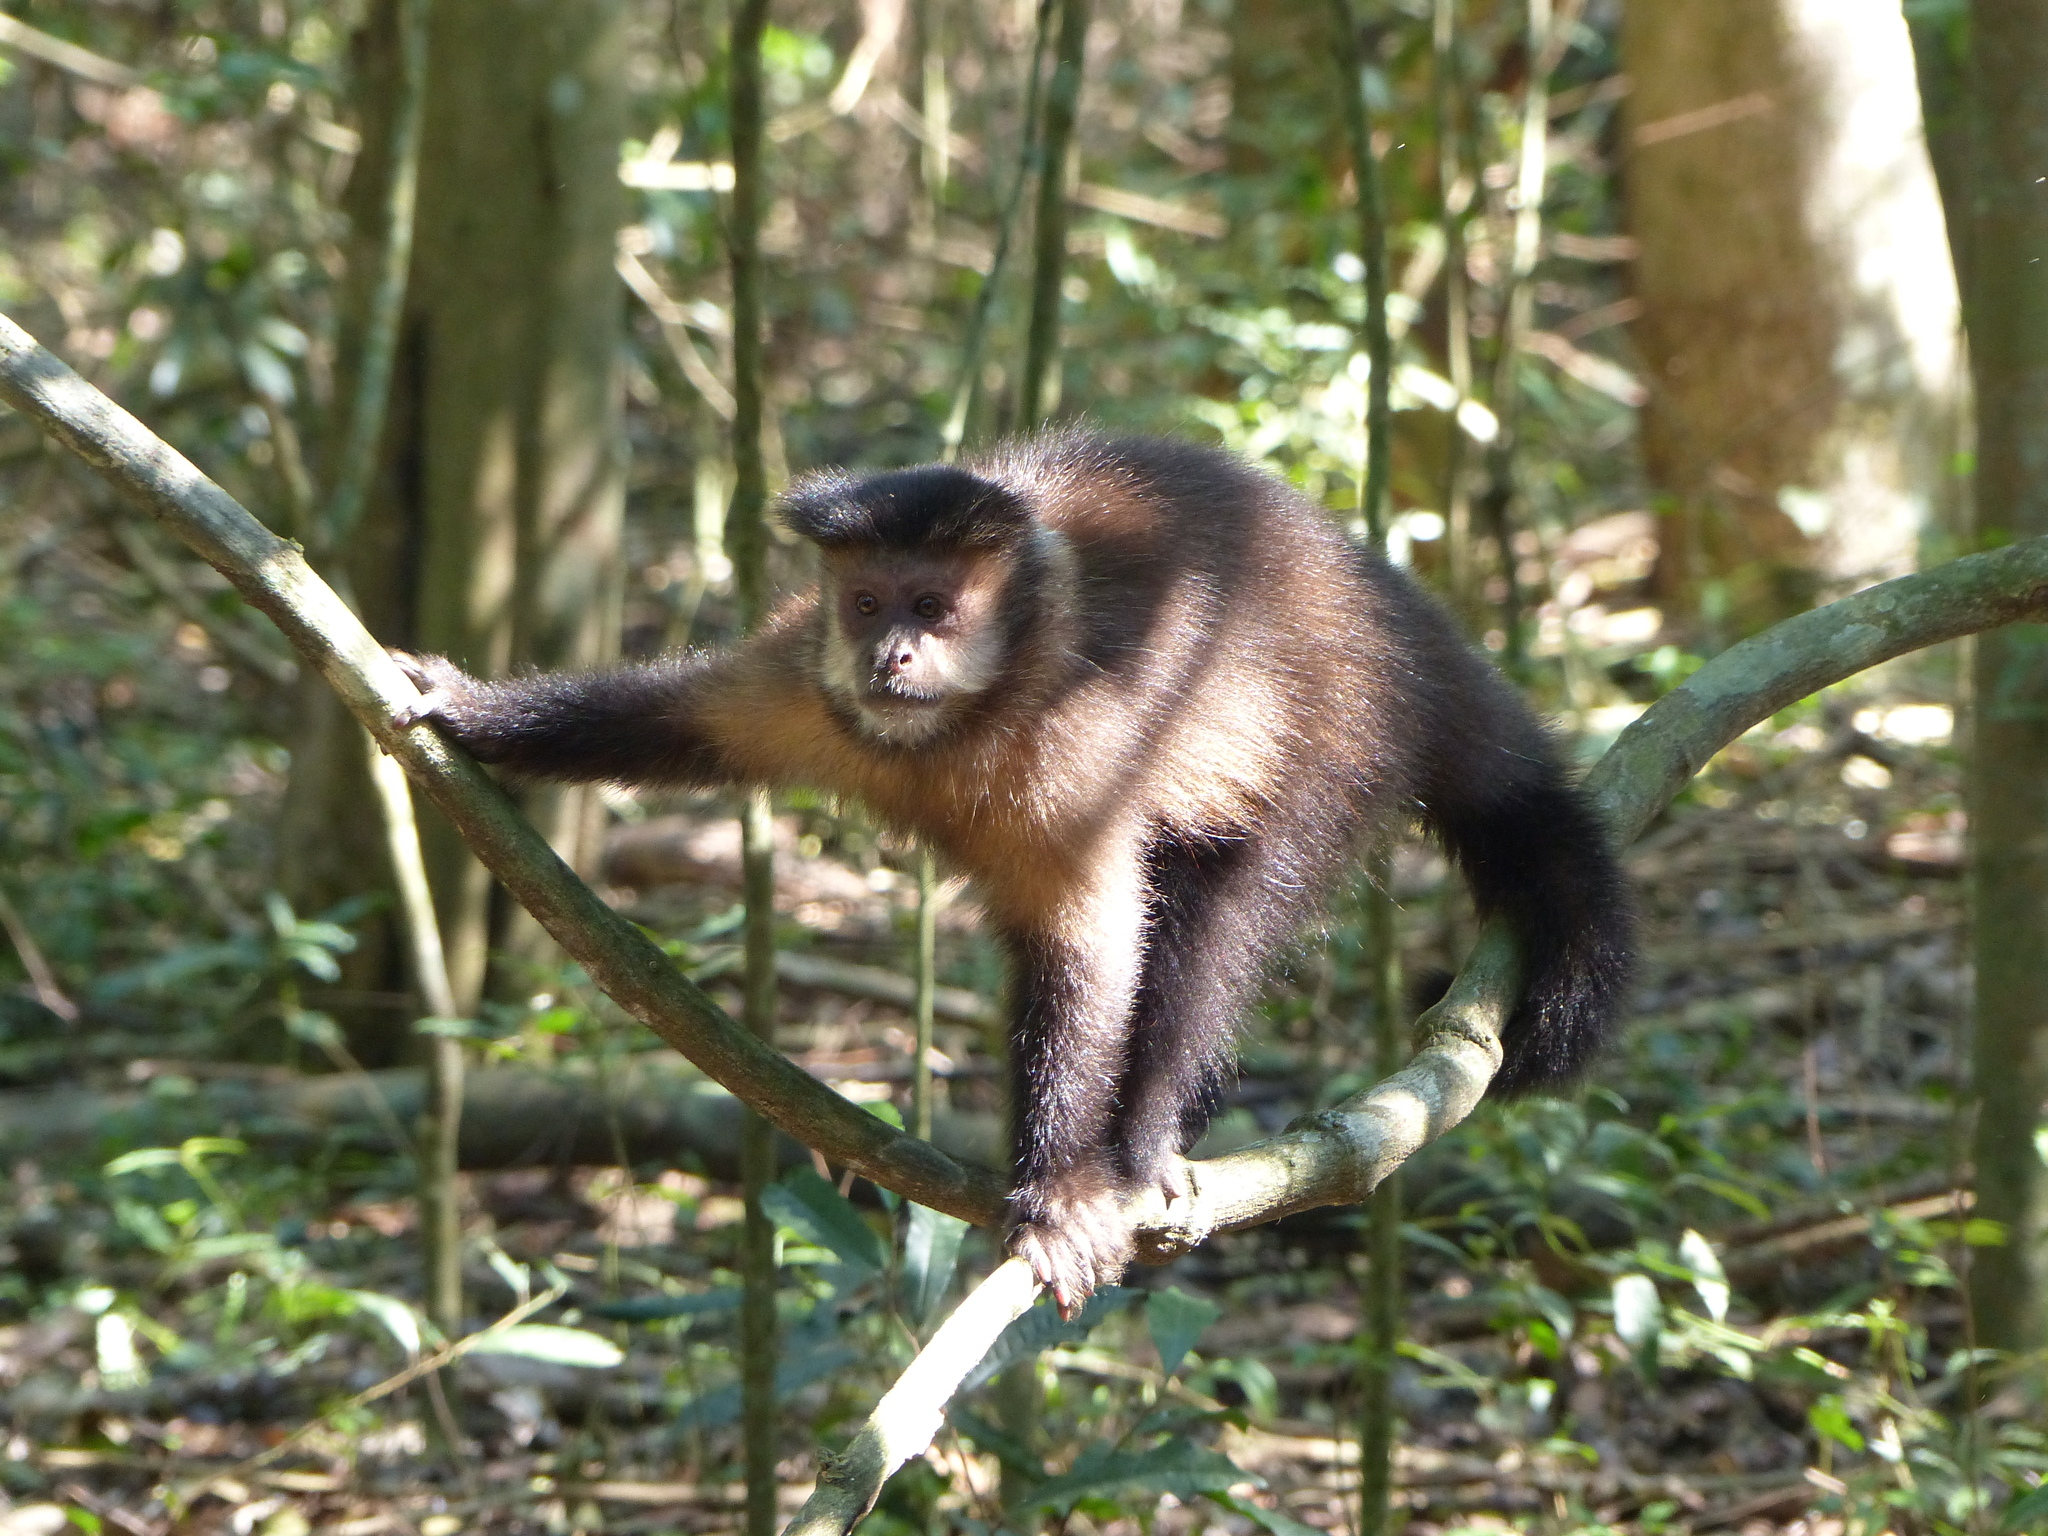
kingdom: Animalia
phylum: Chordata
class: Mammalia
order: Primates
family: Cebidae
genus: Sapajus
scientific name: Sapajus nigritus
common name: Black capuchin
